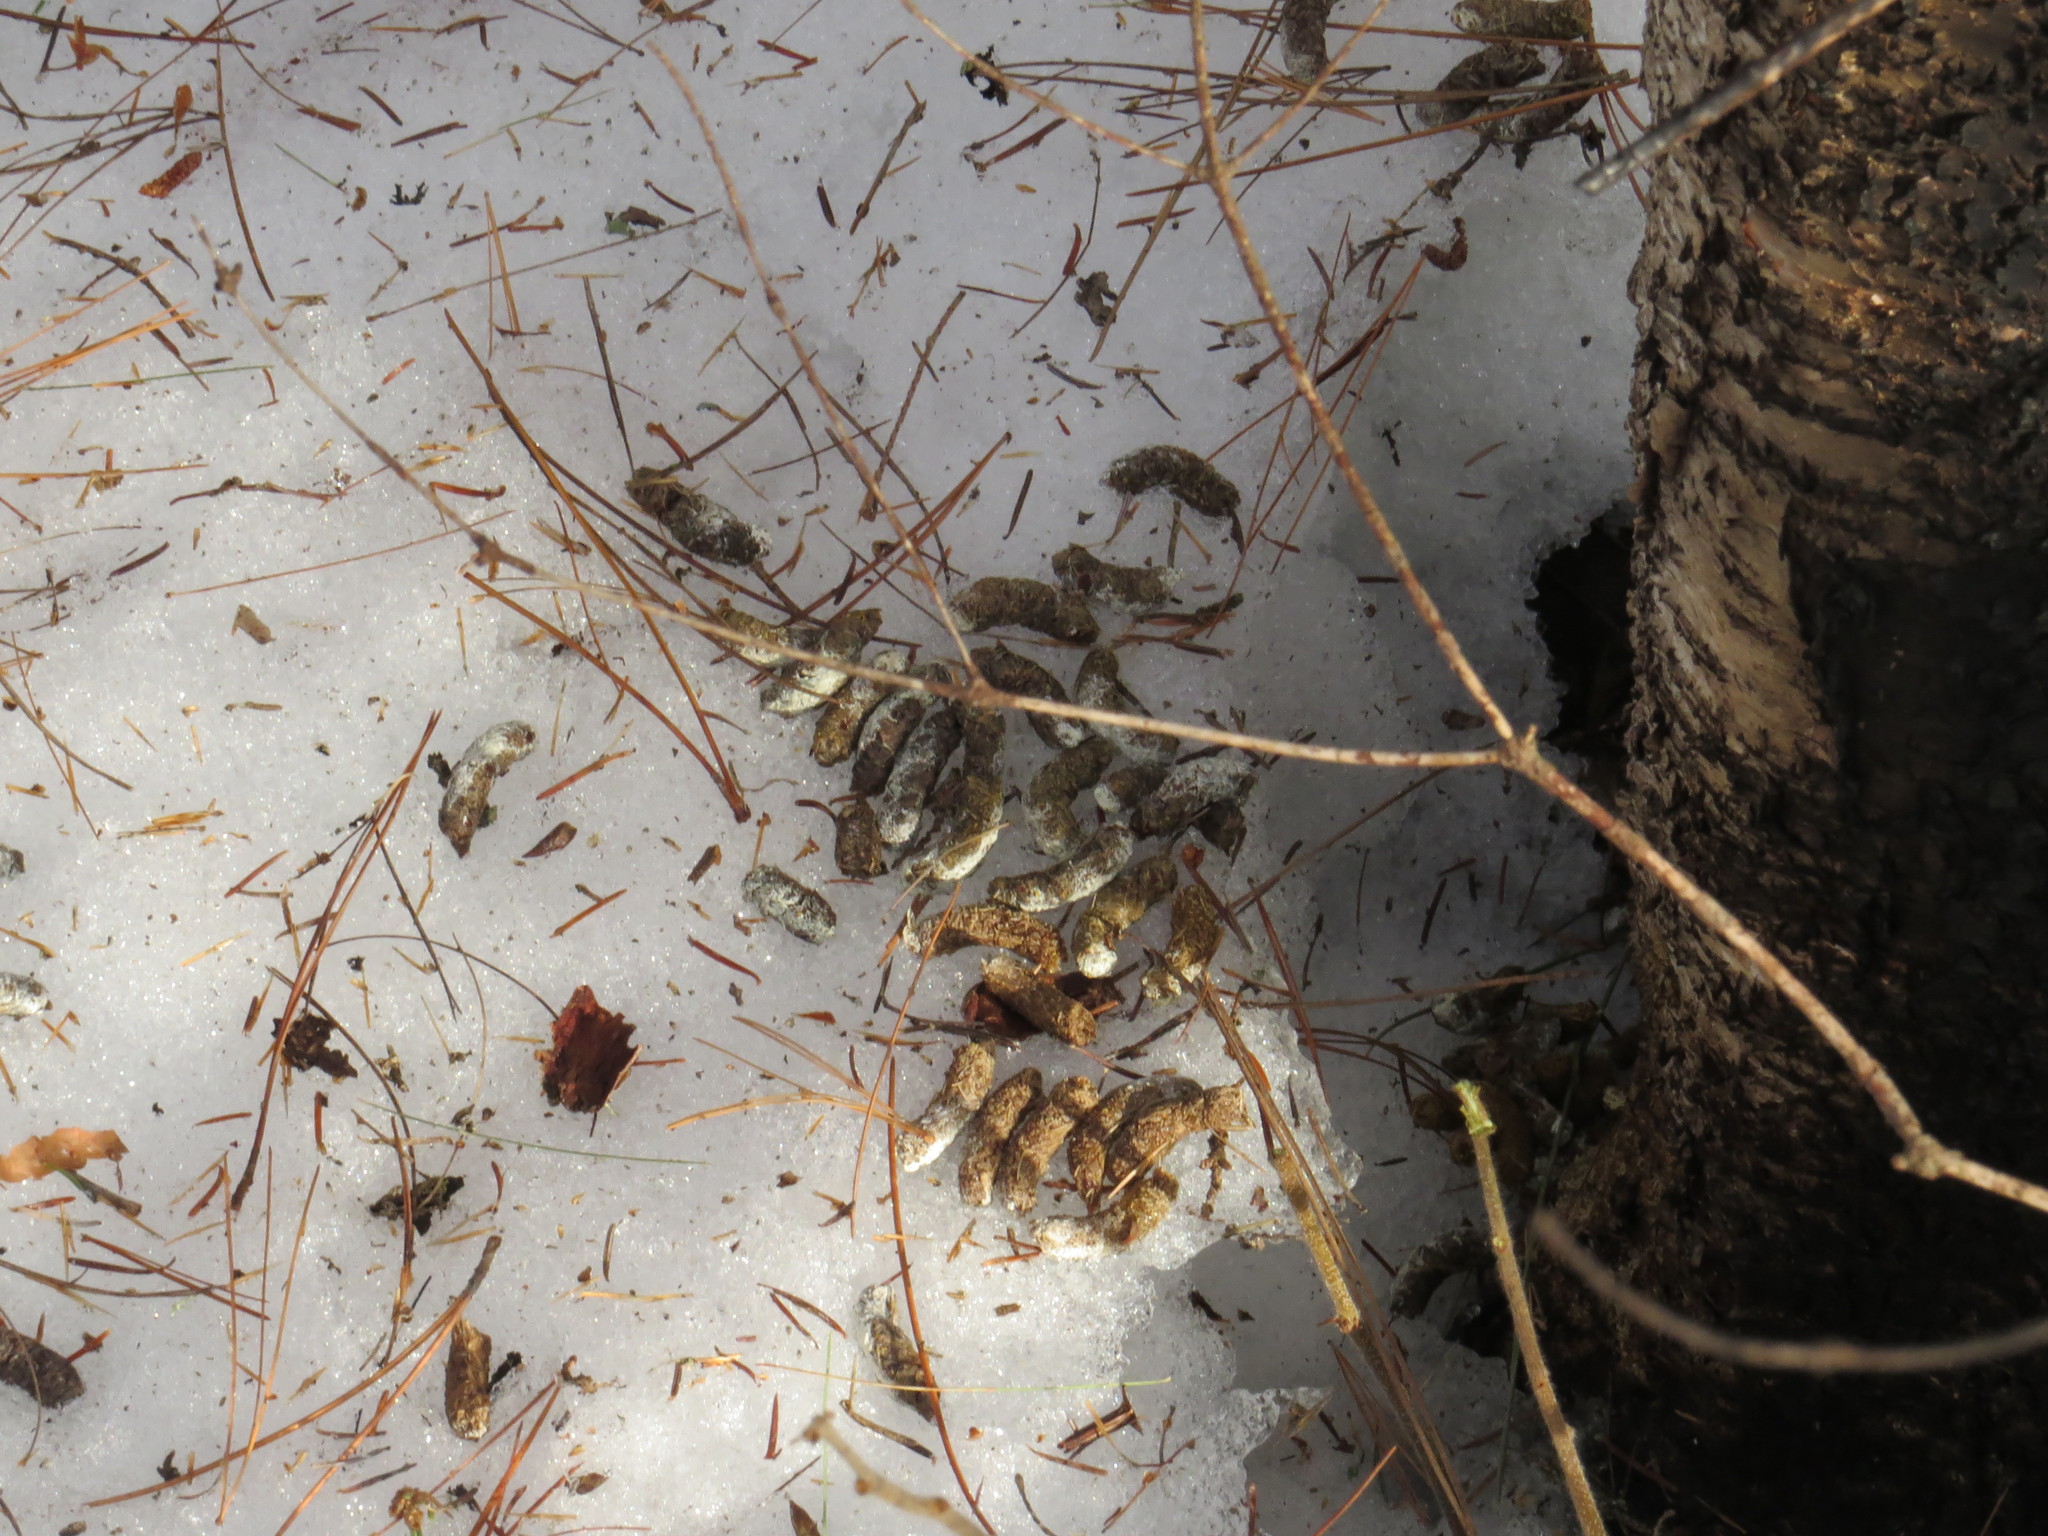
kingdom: Animalia
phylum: Chordata
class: Aves
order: Galliformes
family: Phasianidae
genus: Bonasa
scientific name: Bonasa umbellus
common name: Ruffed grouse
